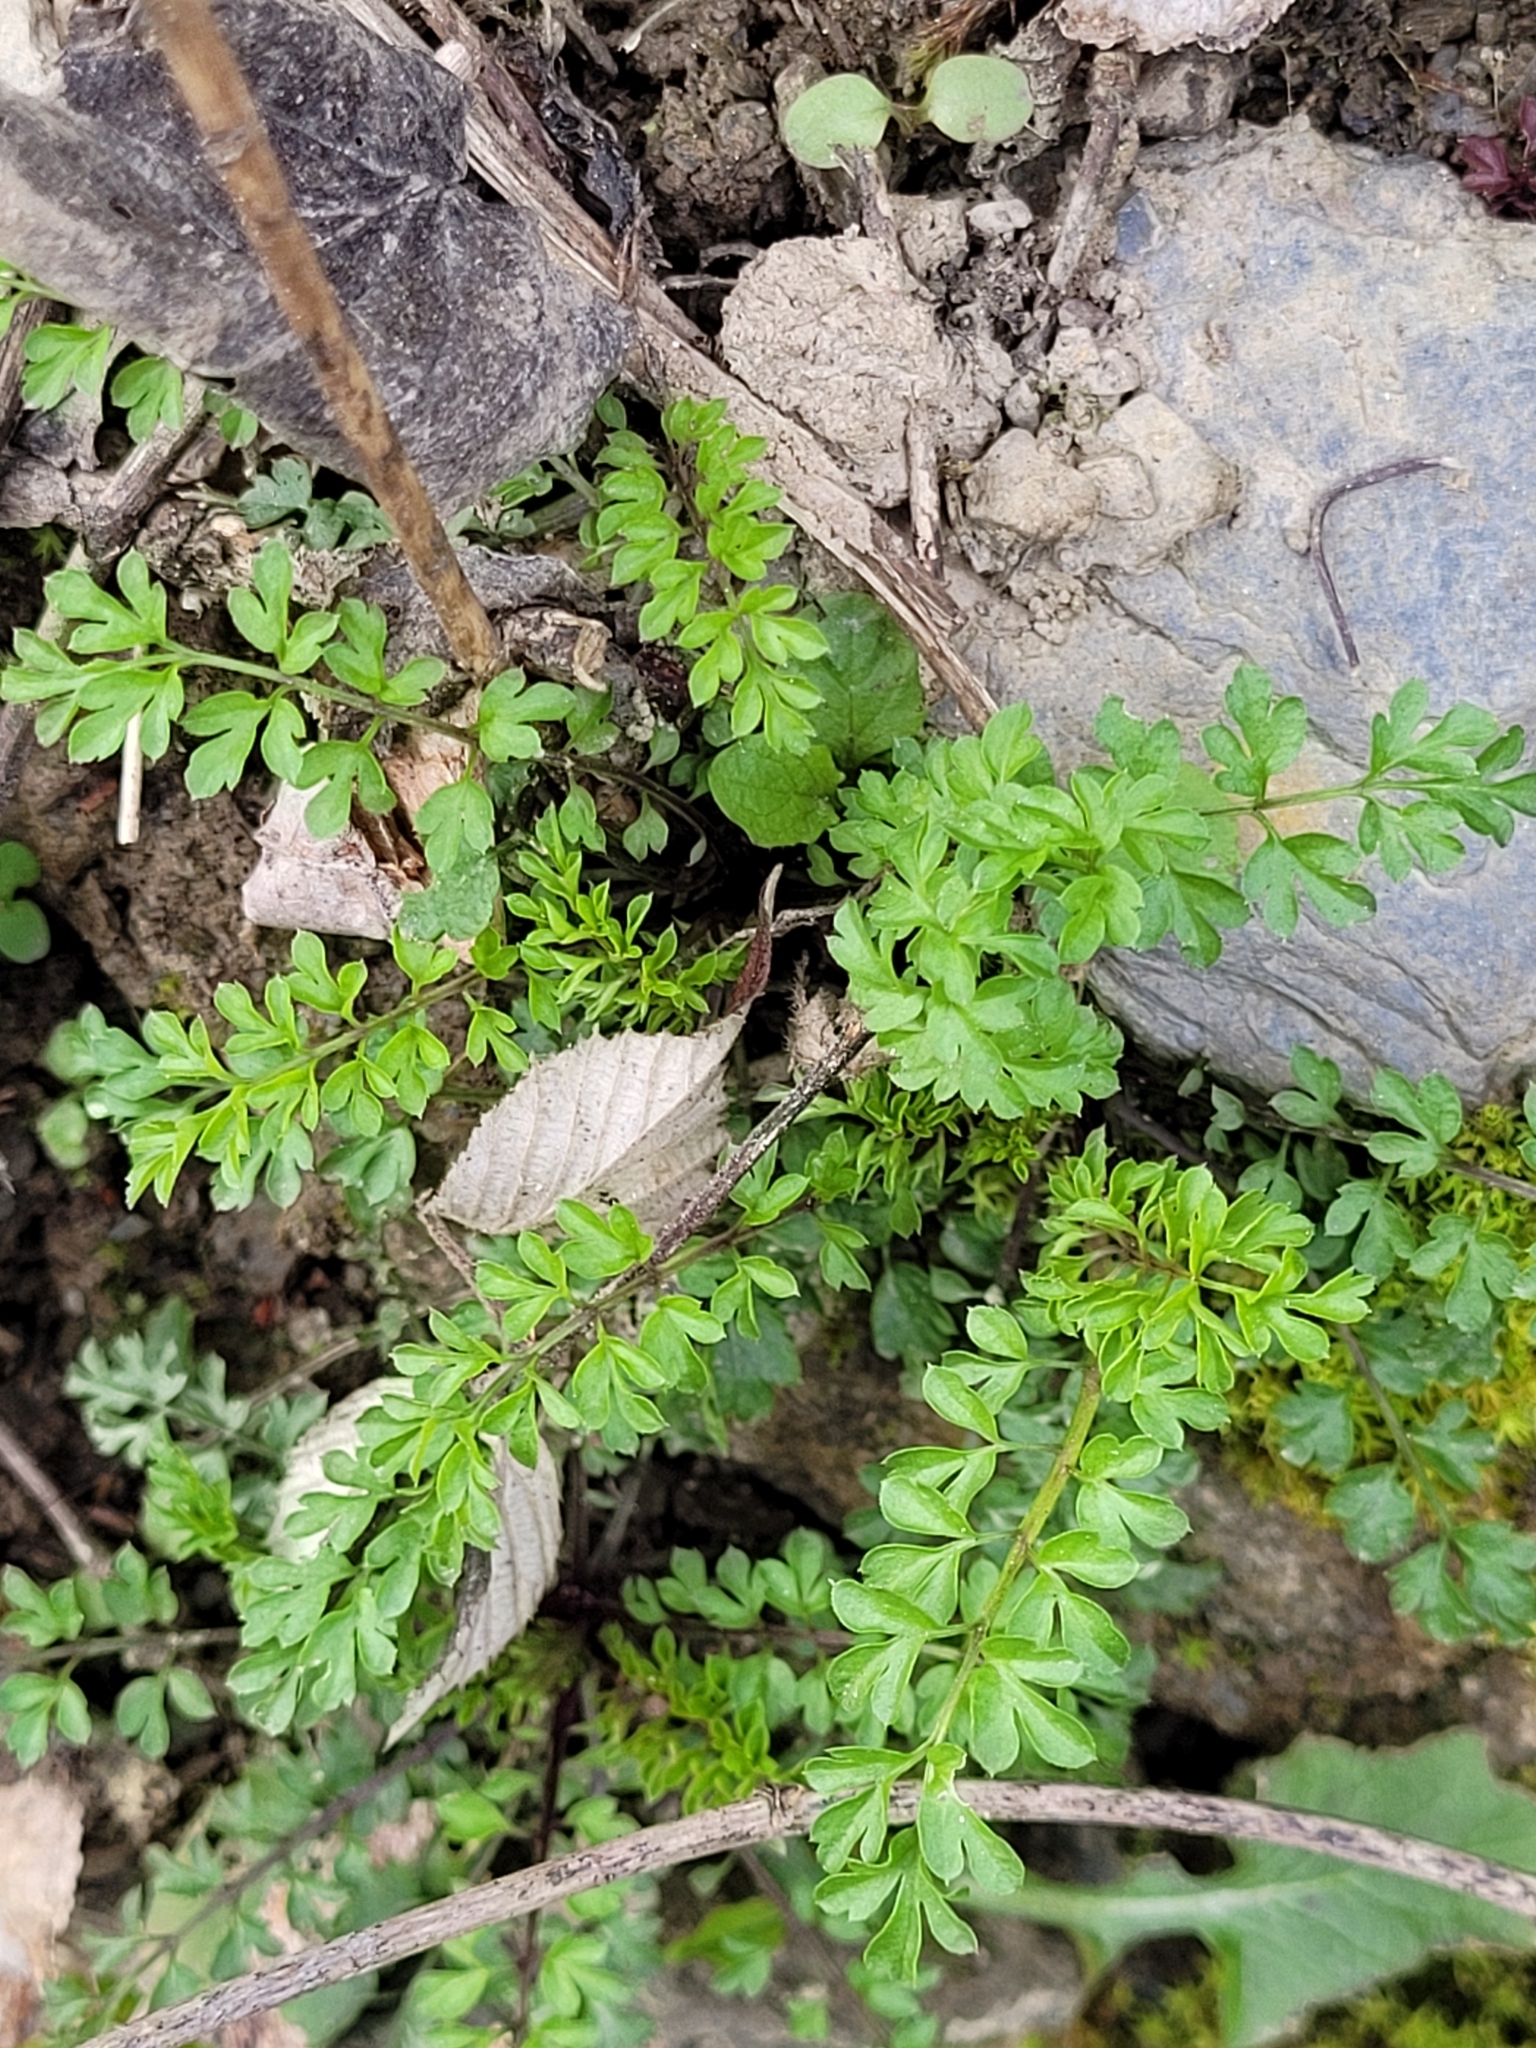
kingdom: Plantae
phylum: Tracheophyta
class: Magnoliopsida
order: Brassicales
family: Brassicaceae
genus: Cardamine
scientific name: Cardamine impatiens
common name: Narrow-leaved bitter-cress
